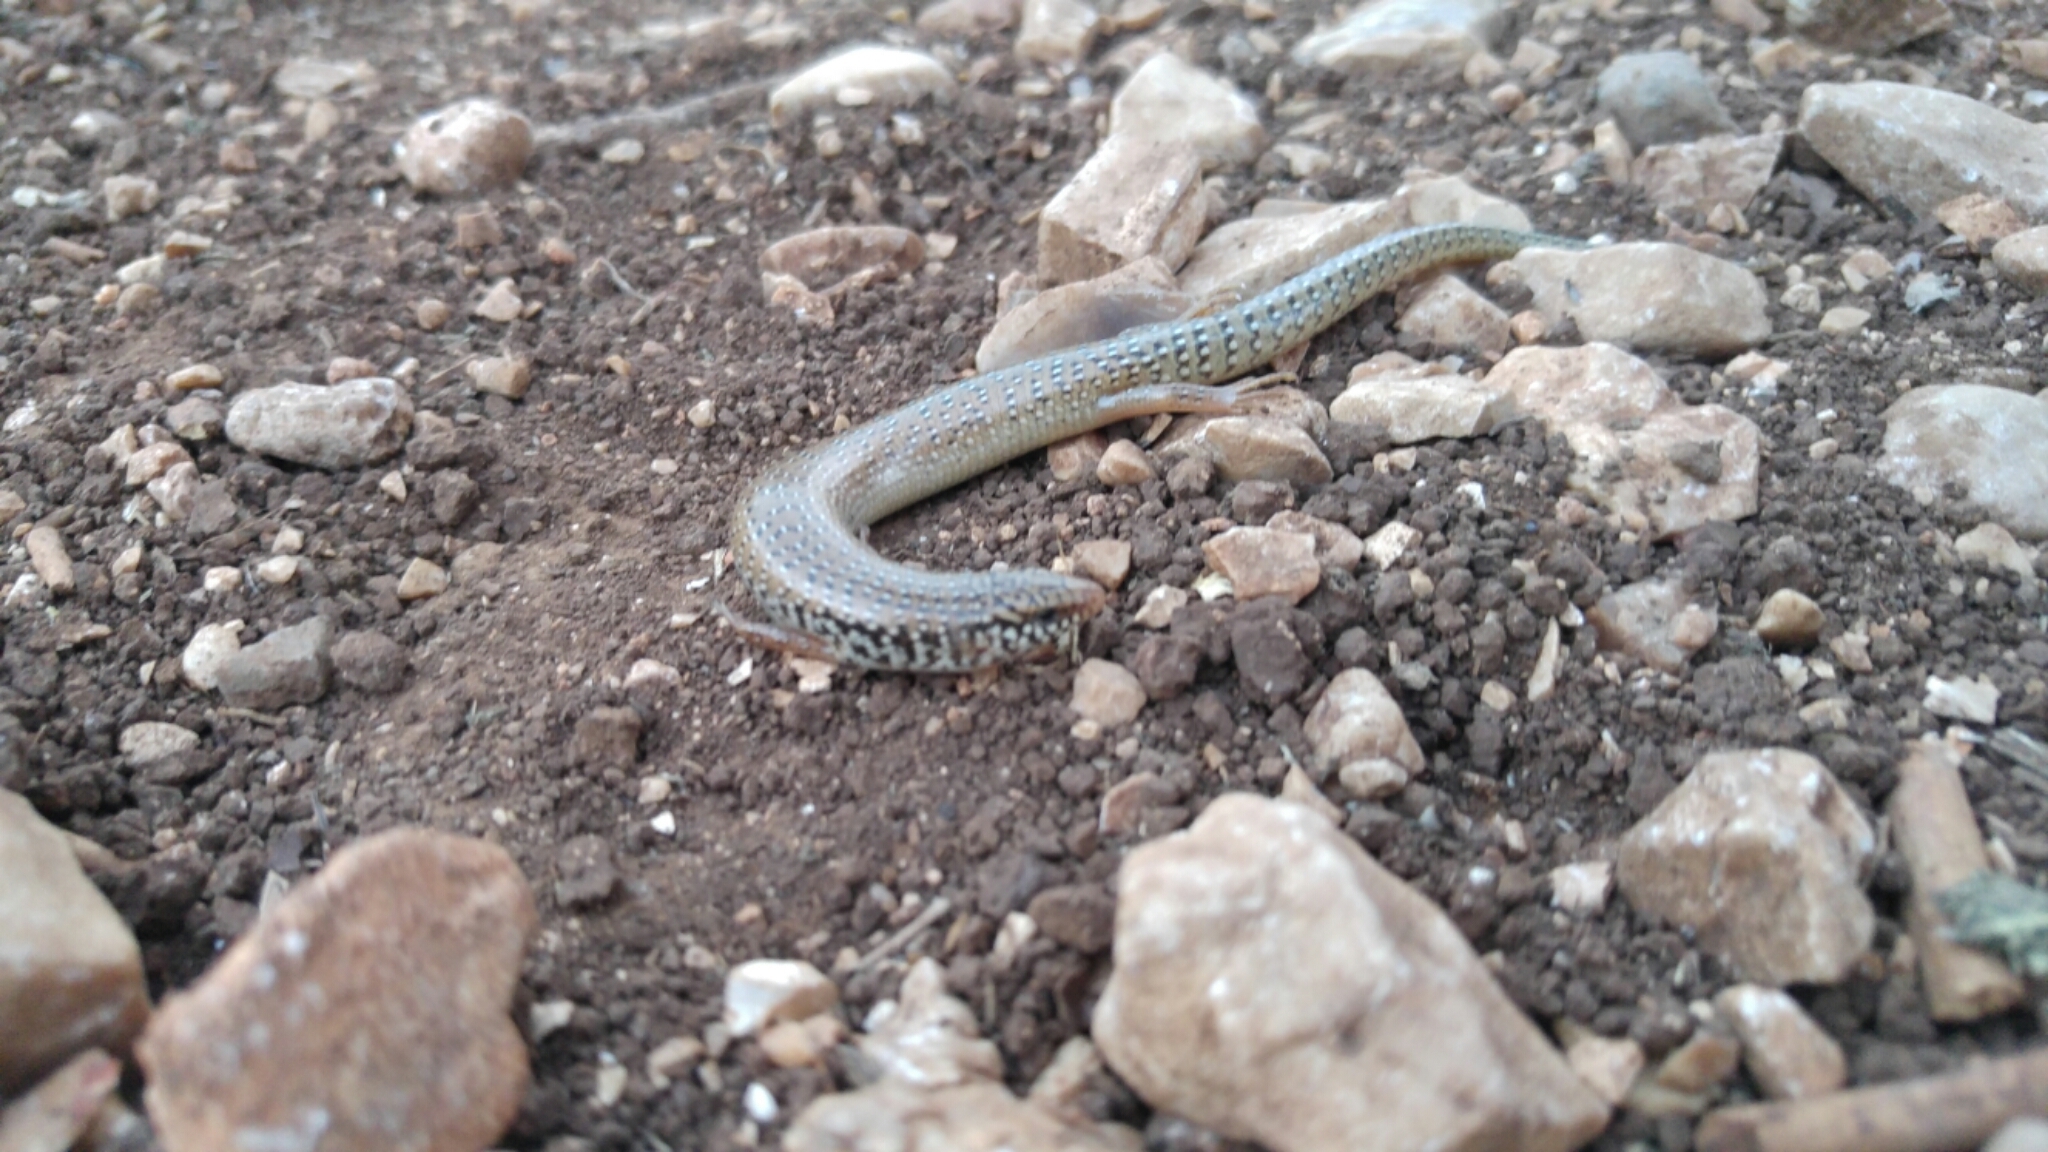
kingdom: Animalia
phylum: Chordata
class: Squamata
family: Scincidae
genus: Chalcides
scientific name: Chalcides ocellatus
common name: Ocellated skink
